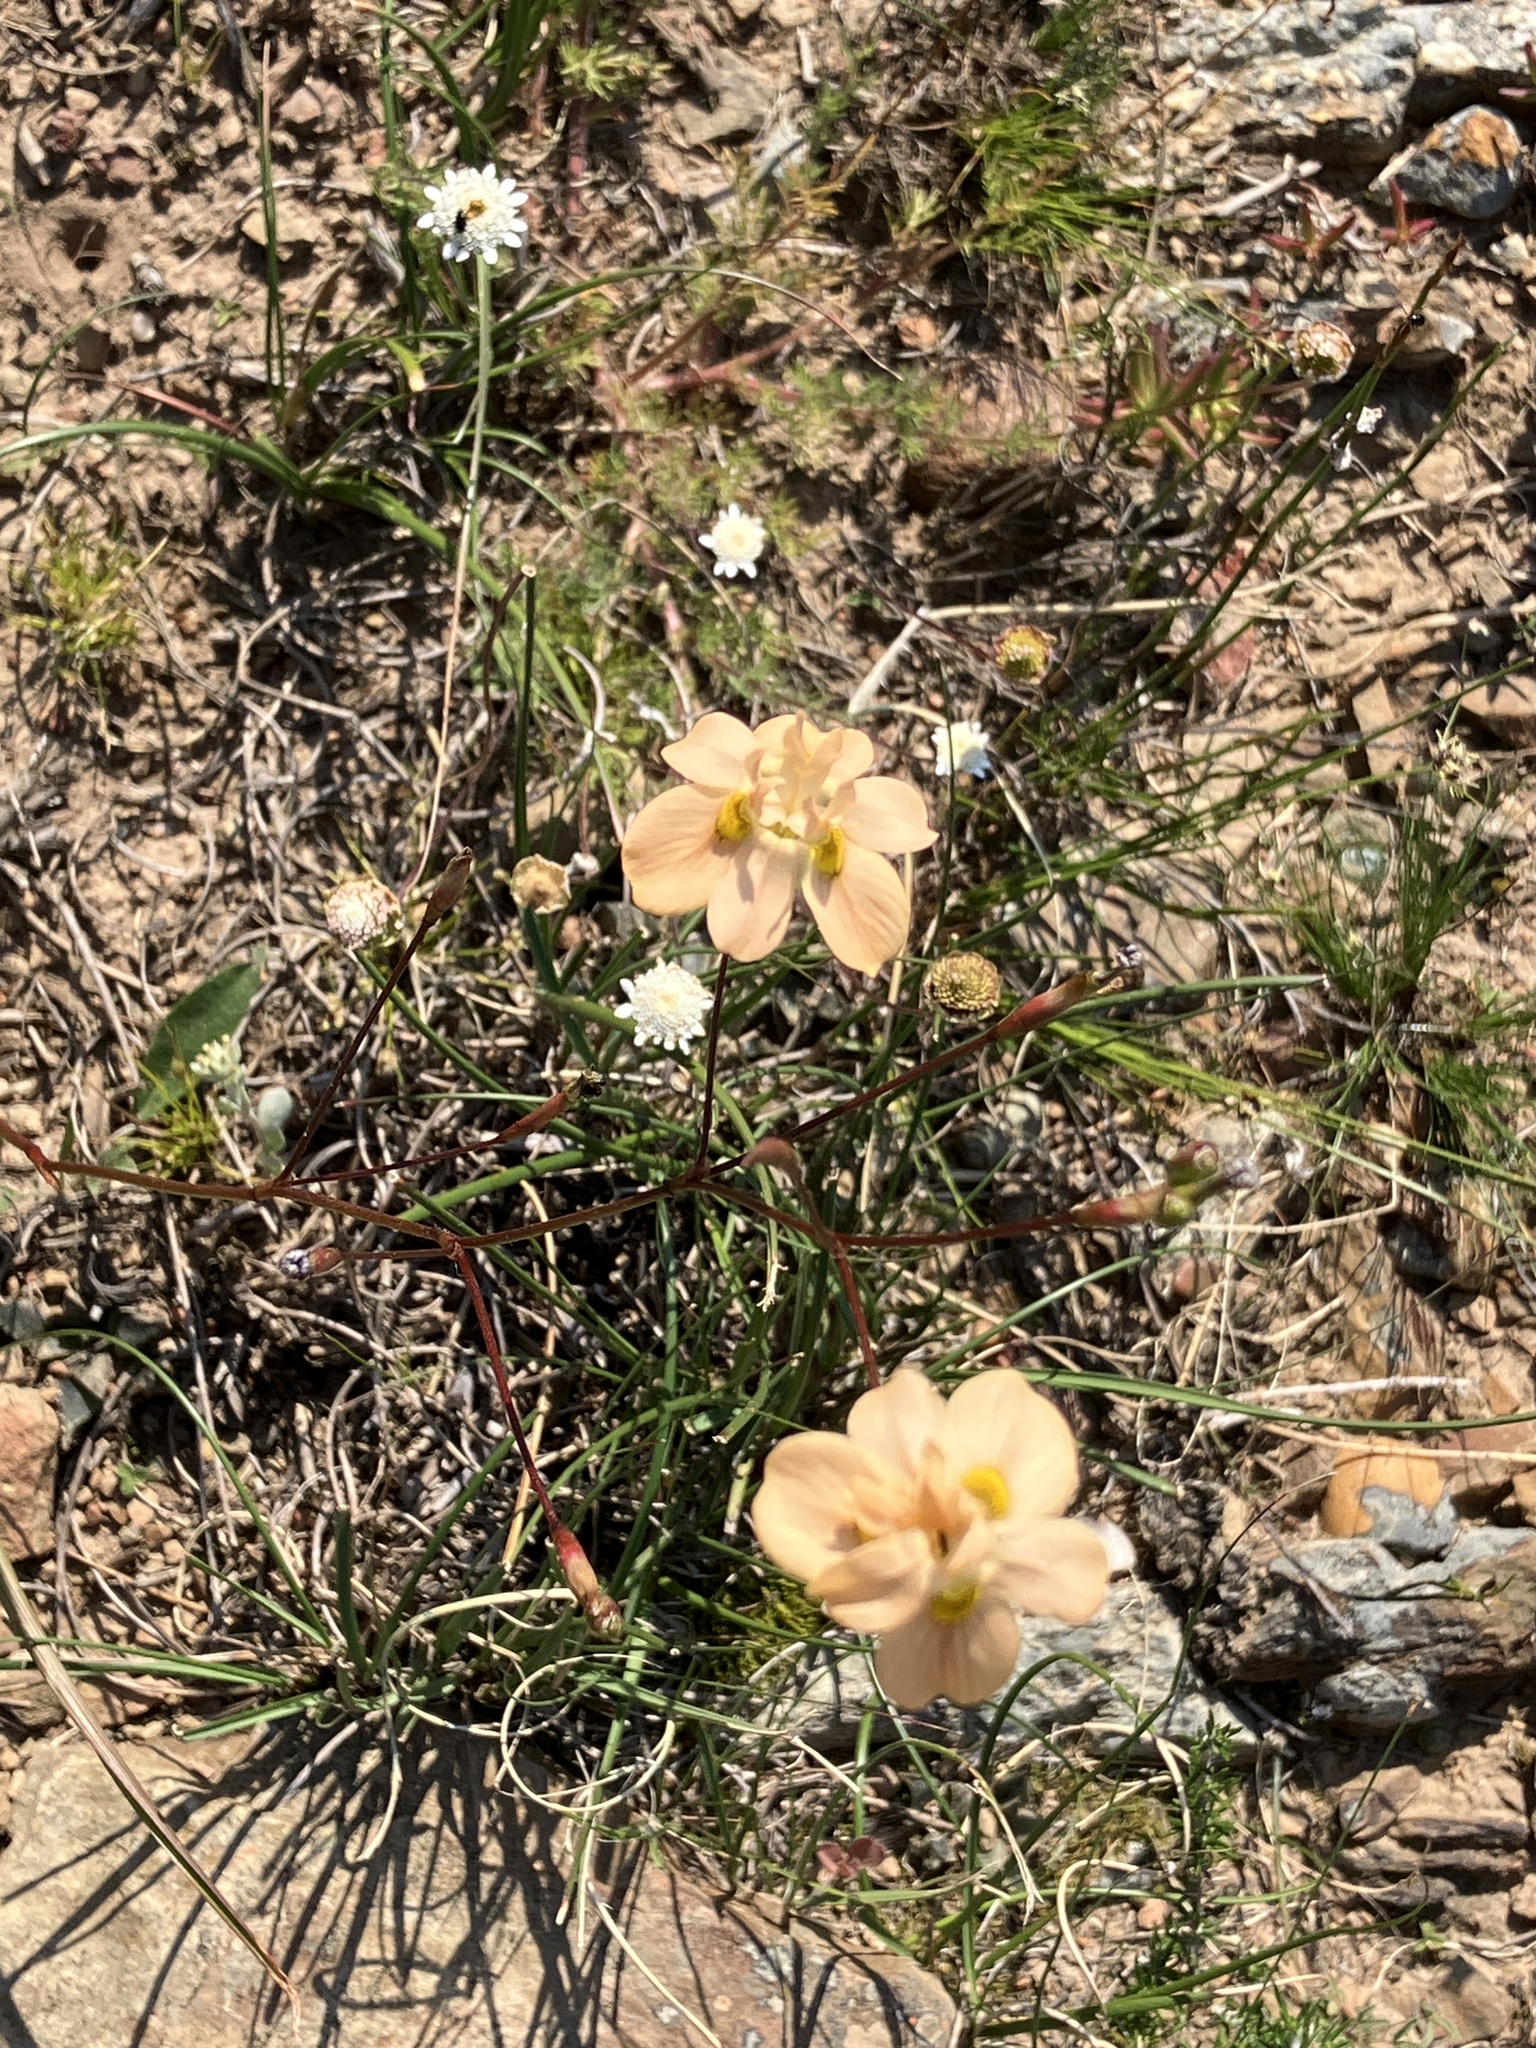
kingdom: Plantae
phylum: Tracheophyta
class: Liliopsida
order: Asparagales
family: Iridaceae
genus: Moraea
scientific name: Moraea gawleri
